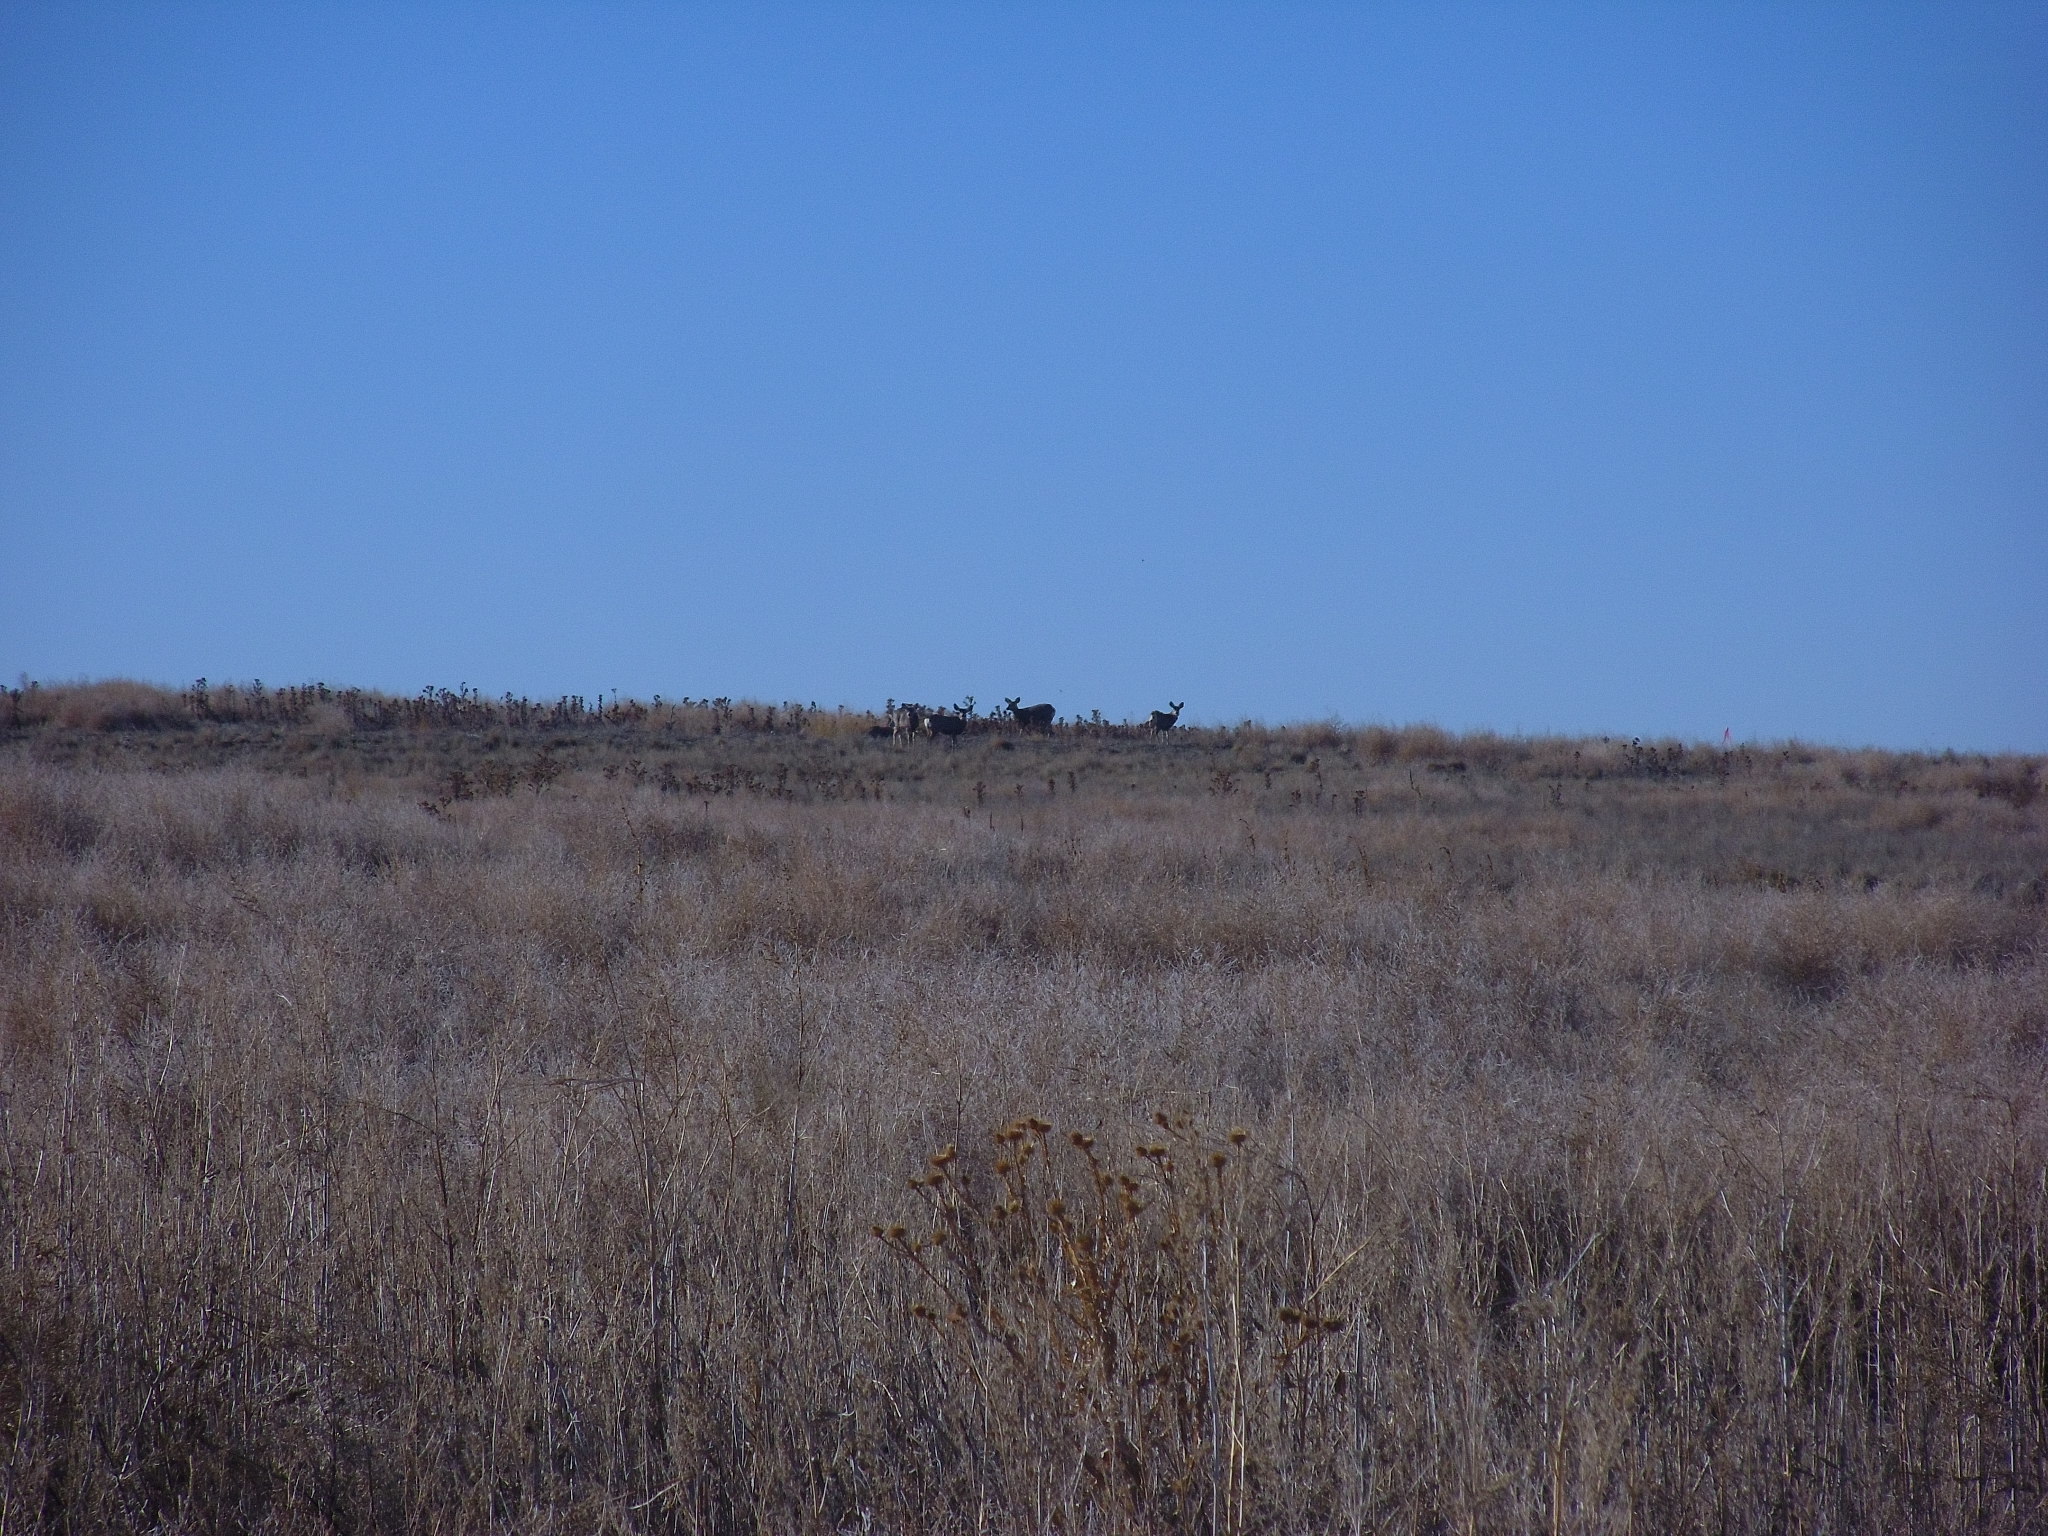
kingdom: Animalia
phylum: Chordata
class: Mammalia
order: Artiodactyla
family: Cervidae
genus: Odocoileus
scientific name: Odocoileus hemionus
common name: Mule deer
